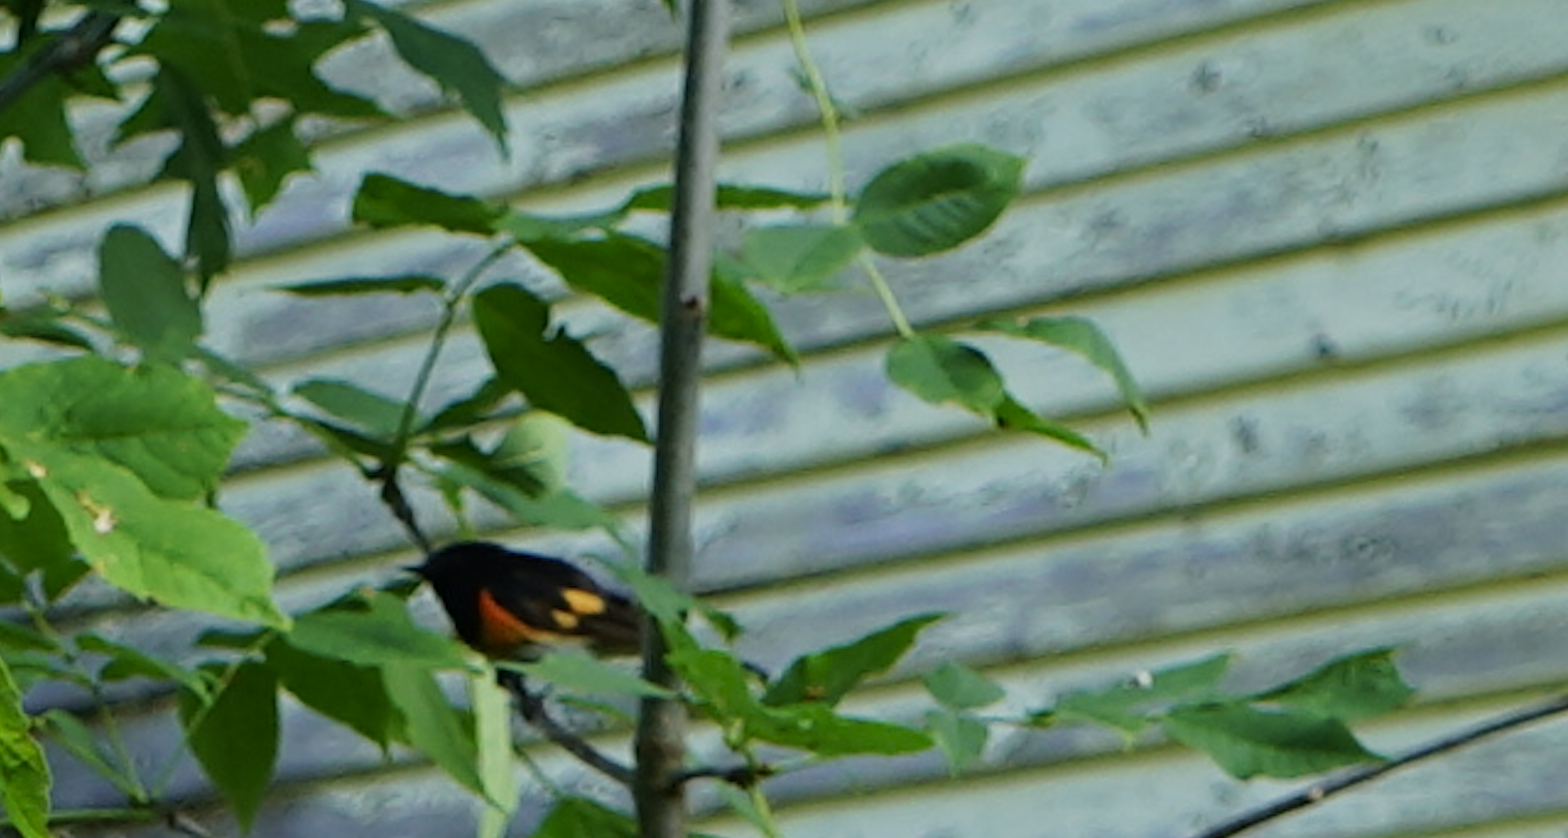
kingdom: Animalia
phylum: Chordata
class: Aves
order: Passeriformes
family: Parulidae
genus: Setophaga
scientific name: Setophaga ruticilla
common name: American redstart
